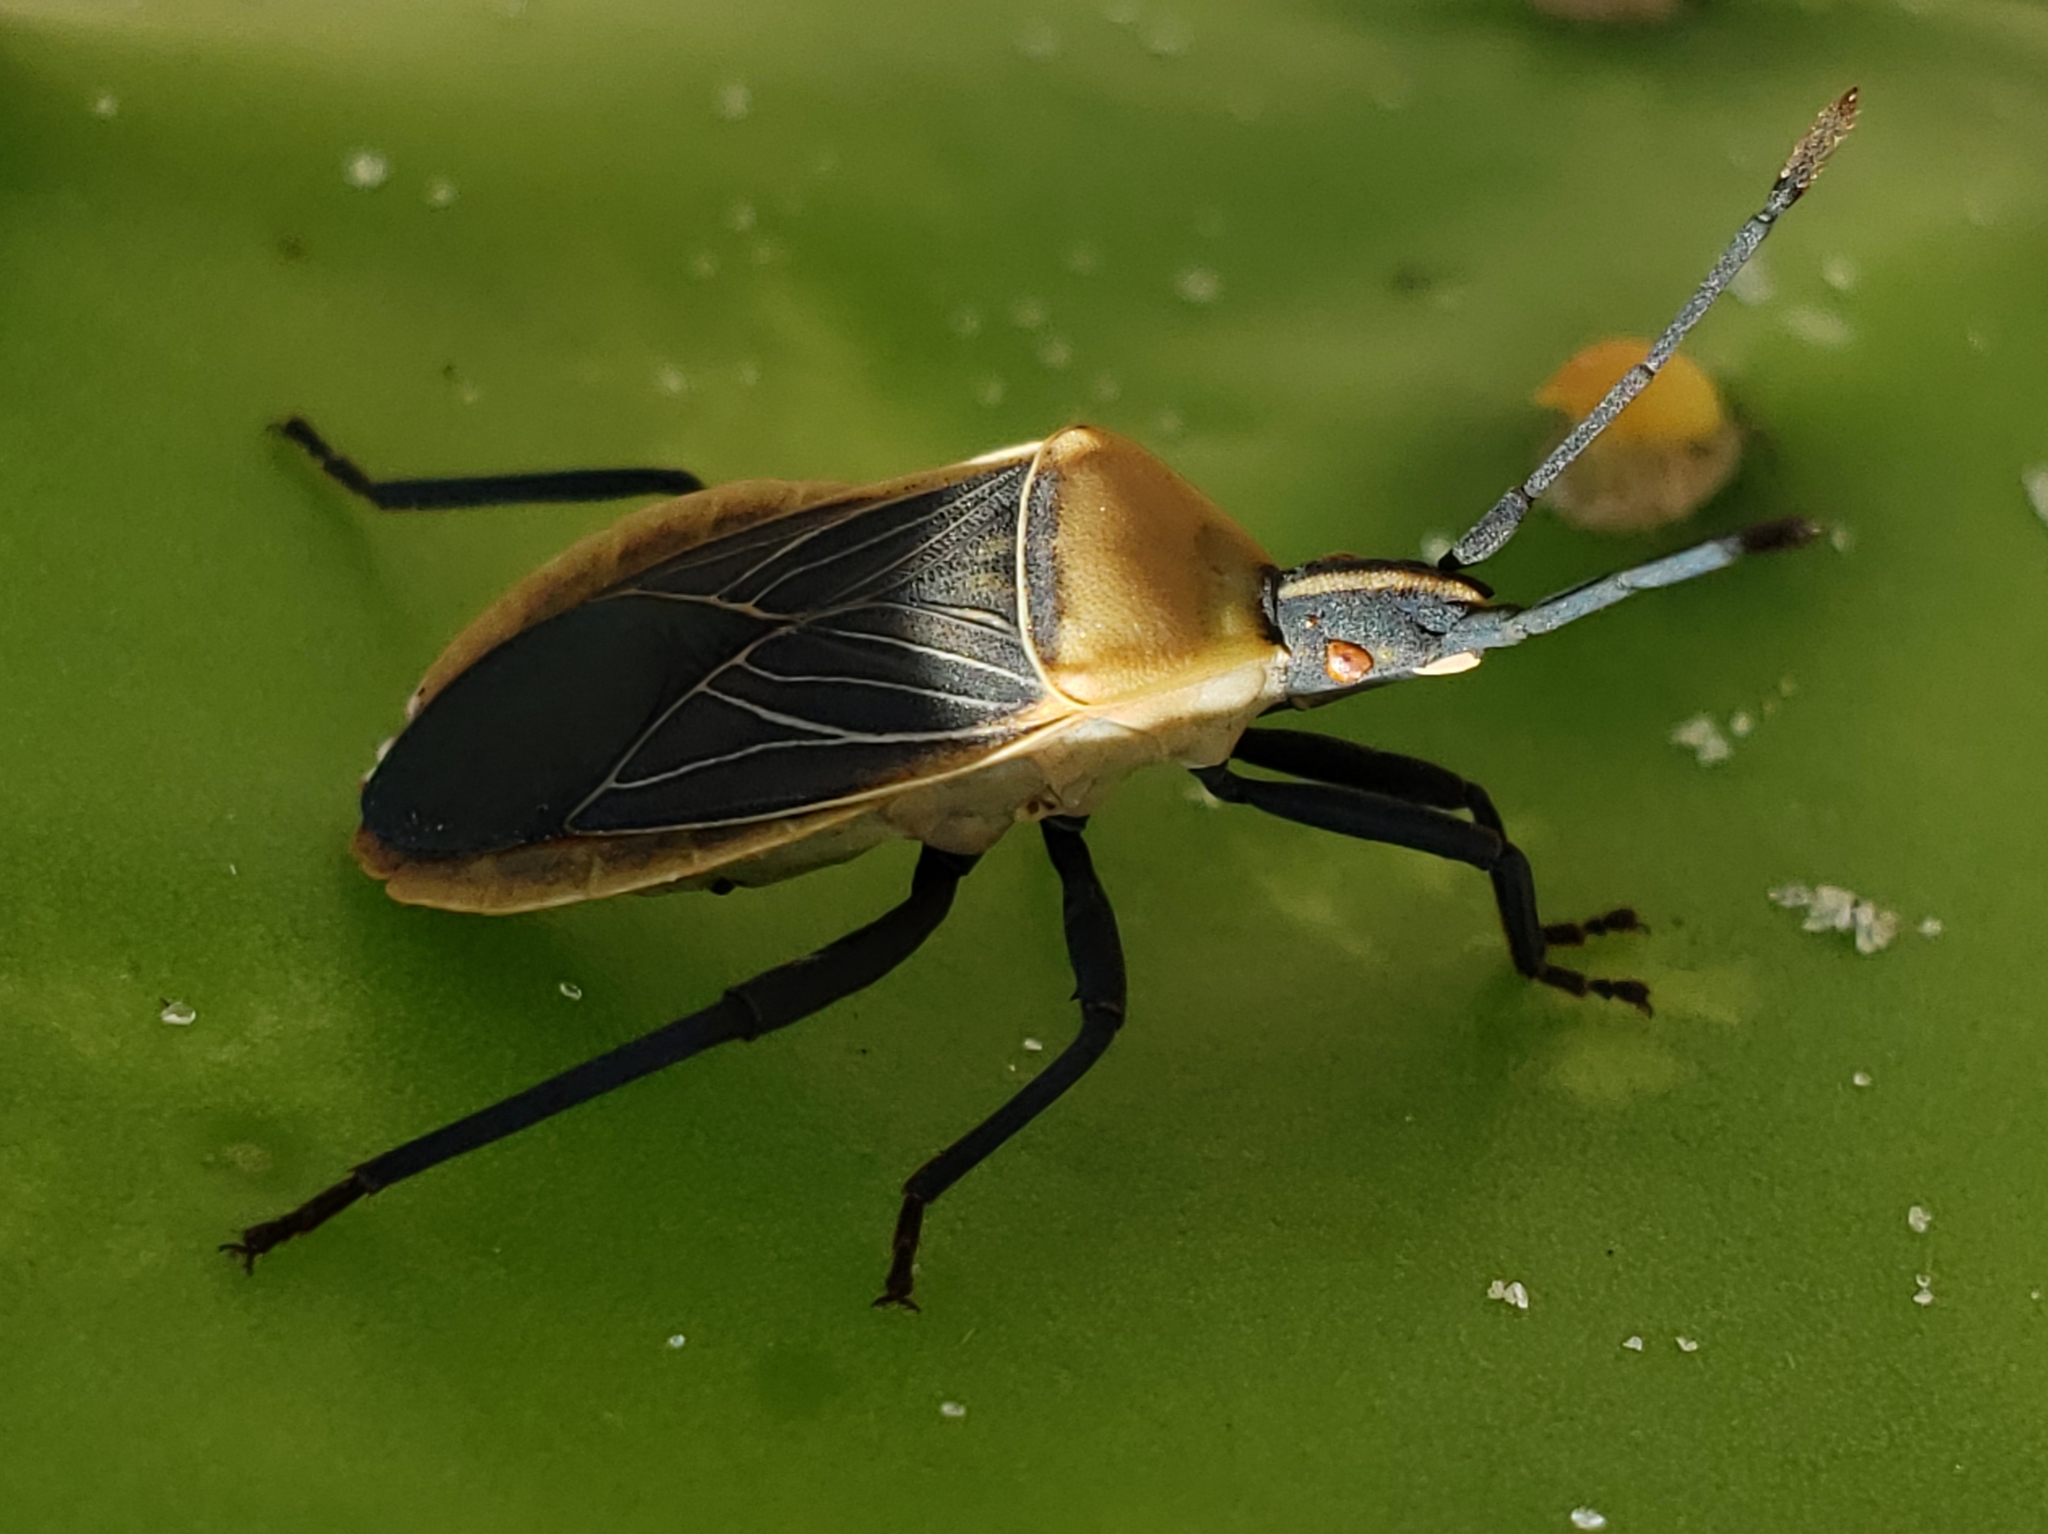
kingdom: Animalia
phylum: Arthropoda
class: Insecta
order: Hemiptera
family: Coreidae
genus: Chelinidea
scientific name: Chelinidea vittiger
